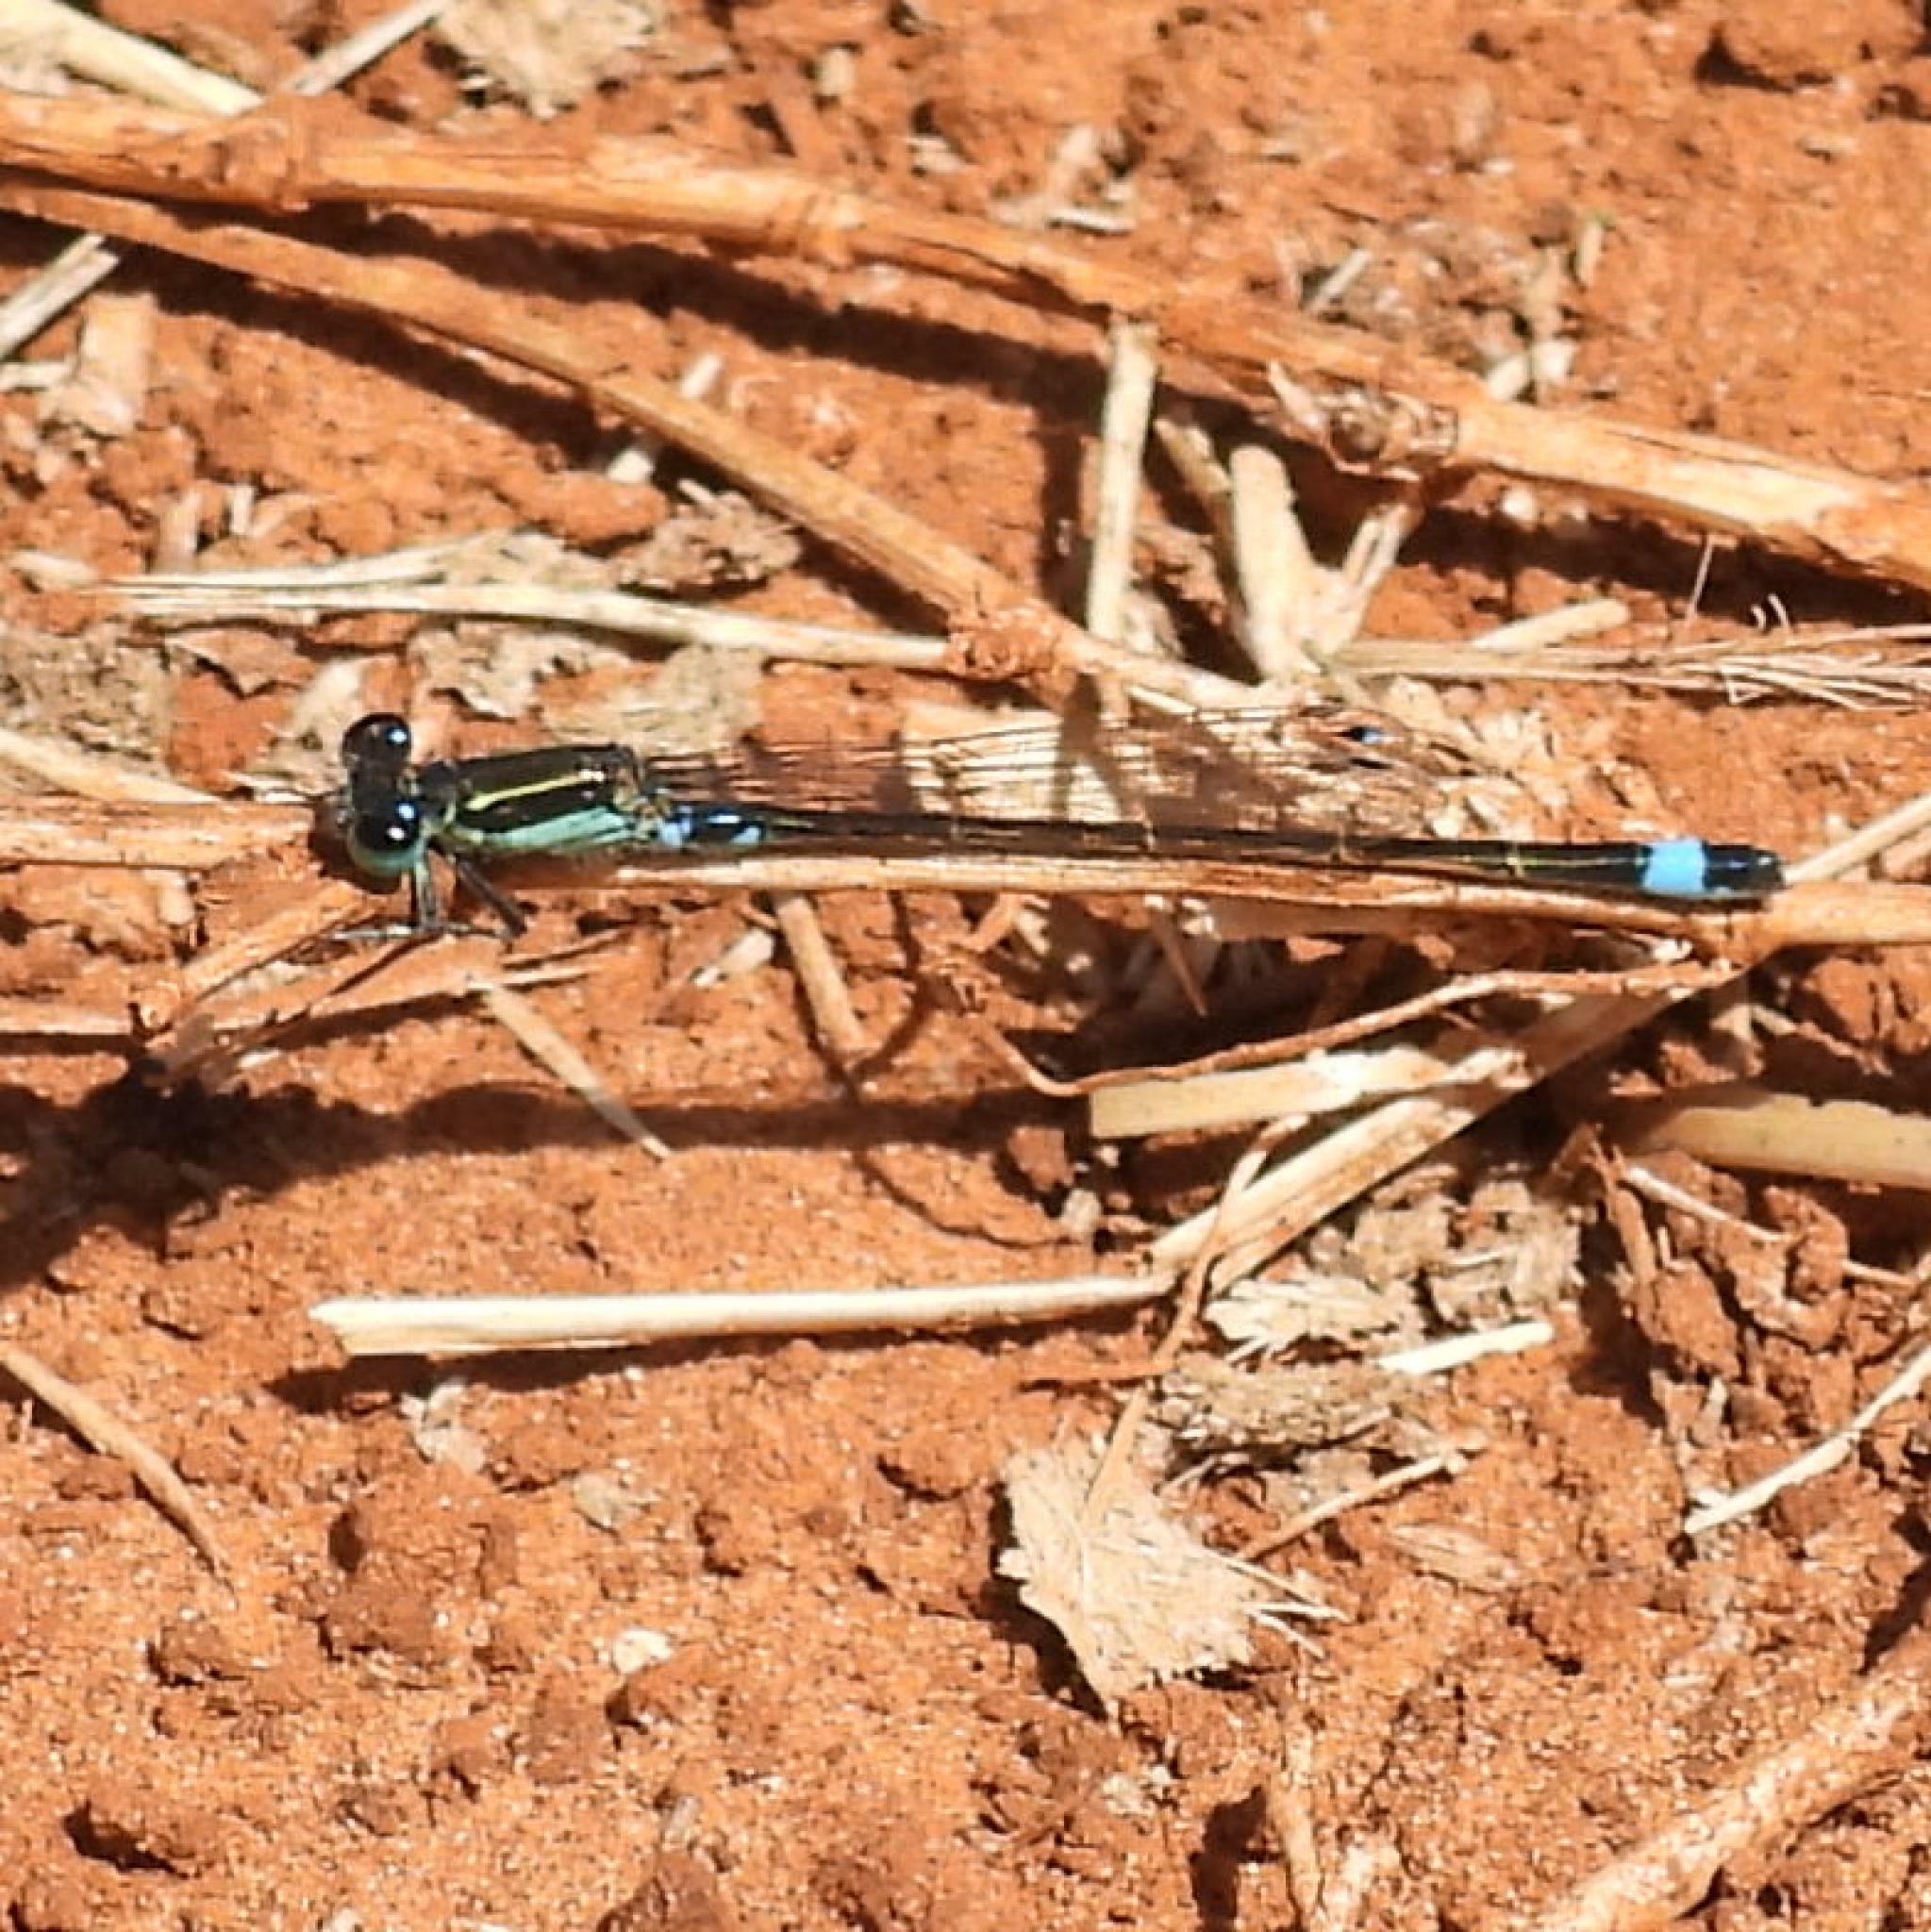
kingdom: Animalia
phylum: Arthropoda
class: Insecta
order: Odonata
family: Coenagrionidae
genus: Ischnura
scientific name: Ischnura senegalensis
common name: Tropical bluetail
